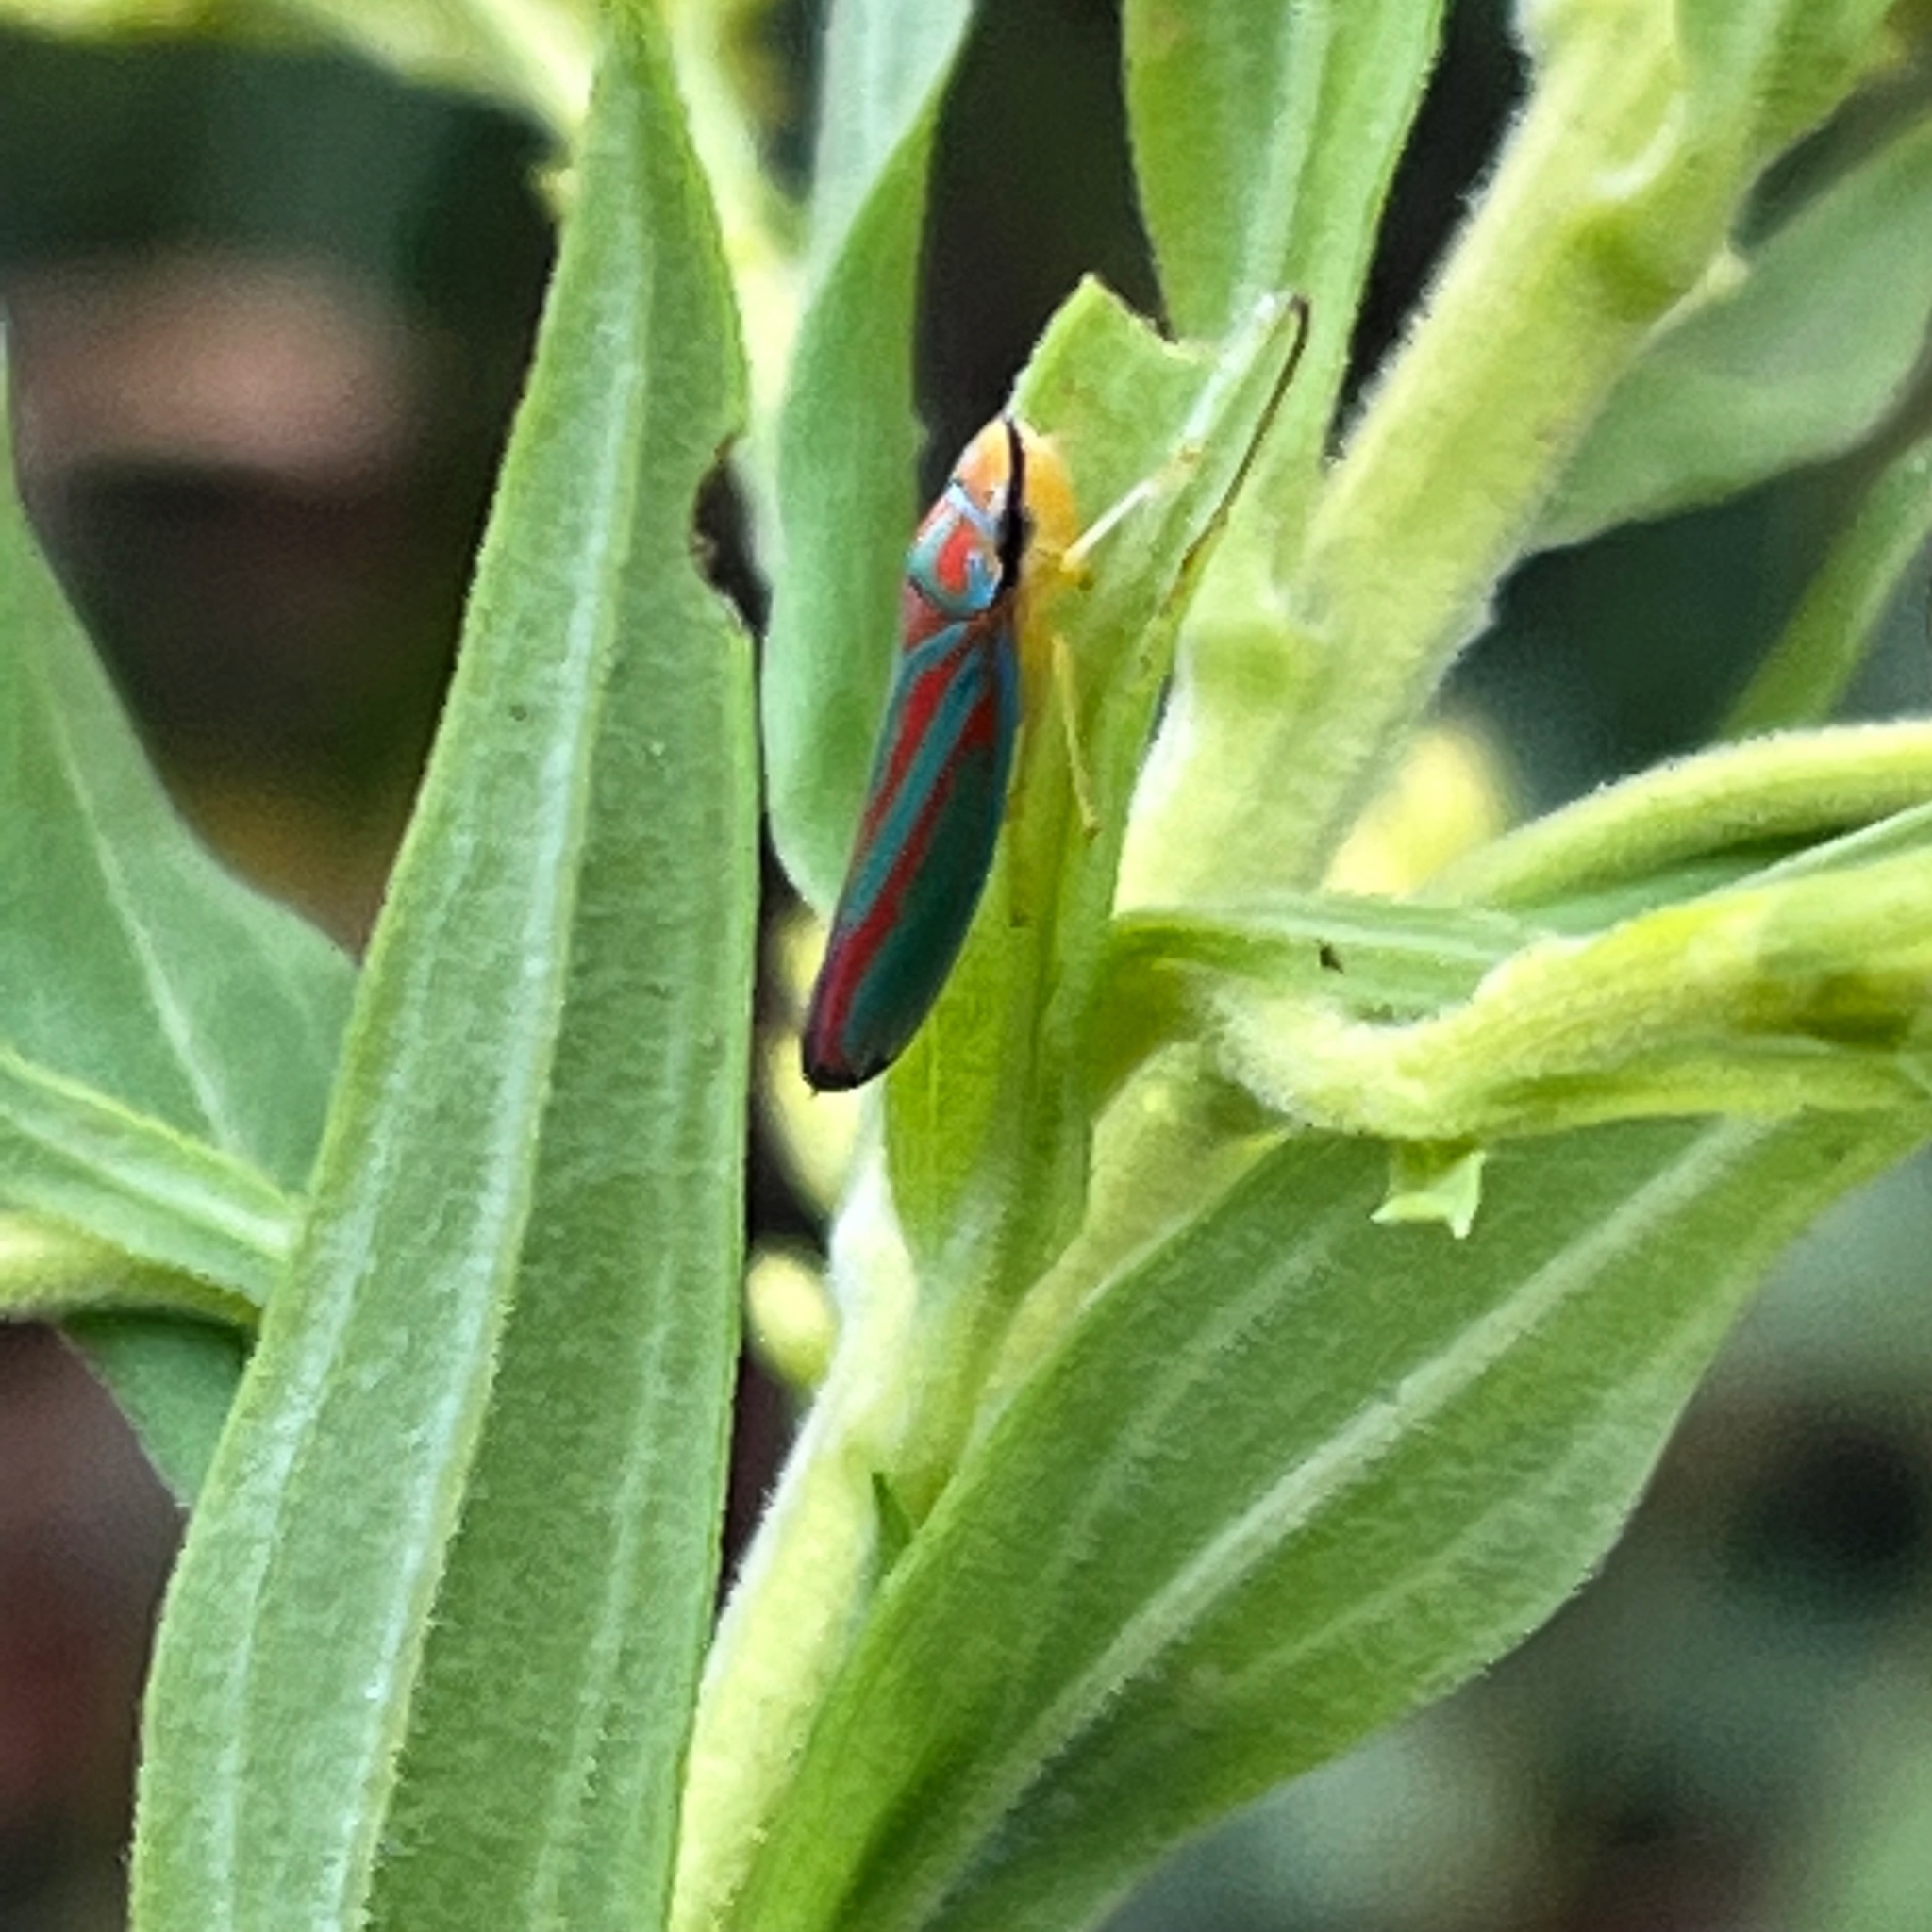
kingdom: Animalia
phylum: Arthropoda
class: Insecta
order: Hemiptera
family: Cicadellidae
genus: Graphocephala
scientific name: Graphocephala coccinea
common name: Candy-striped leafhopper
